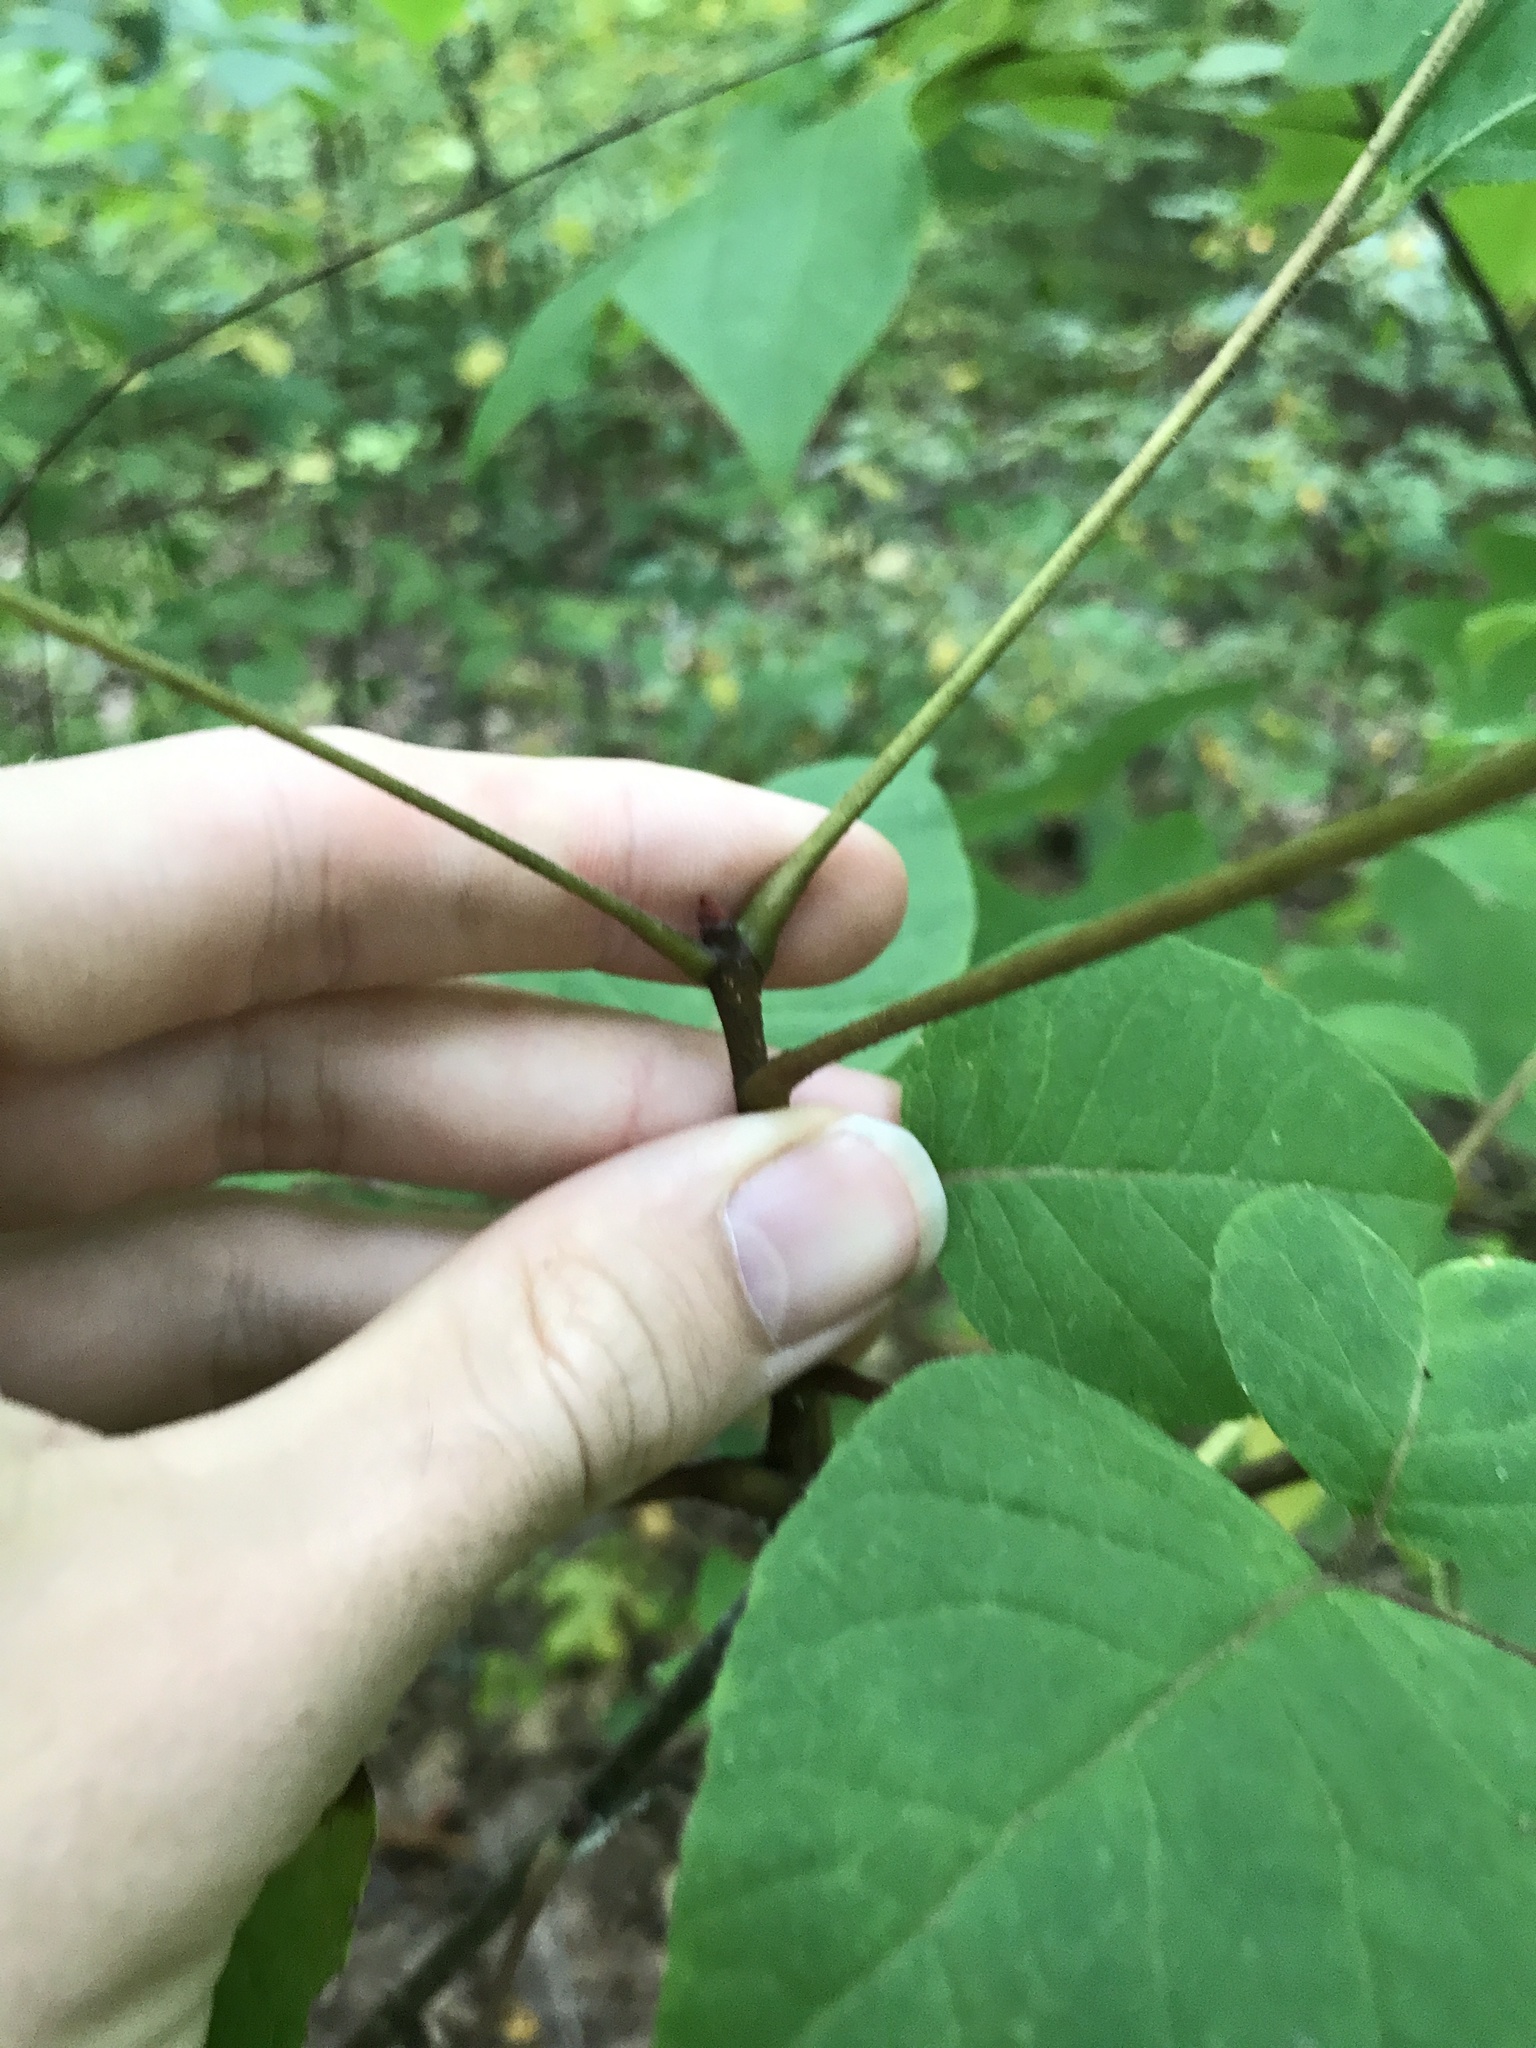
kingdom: Plantae
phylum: Tracheophyta
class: Magnoliopsida
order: Sapindales
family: Rutaceae
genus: Phellodendron
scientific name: Phellodendron amurense
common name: Amur corktree
